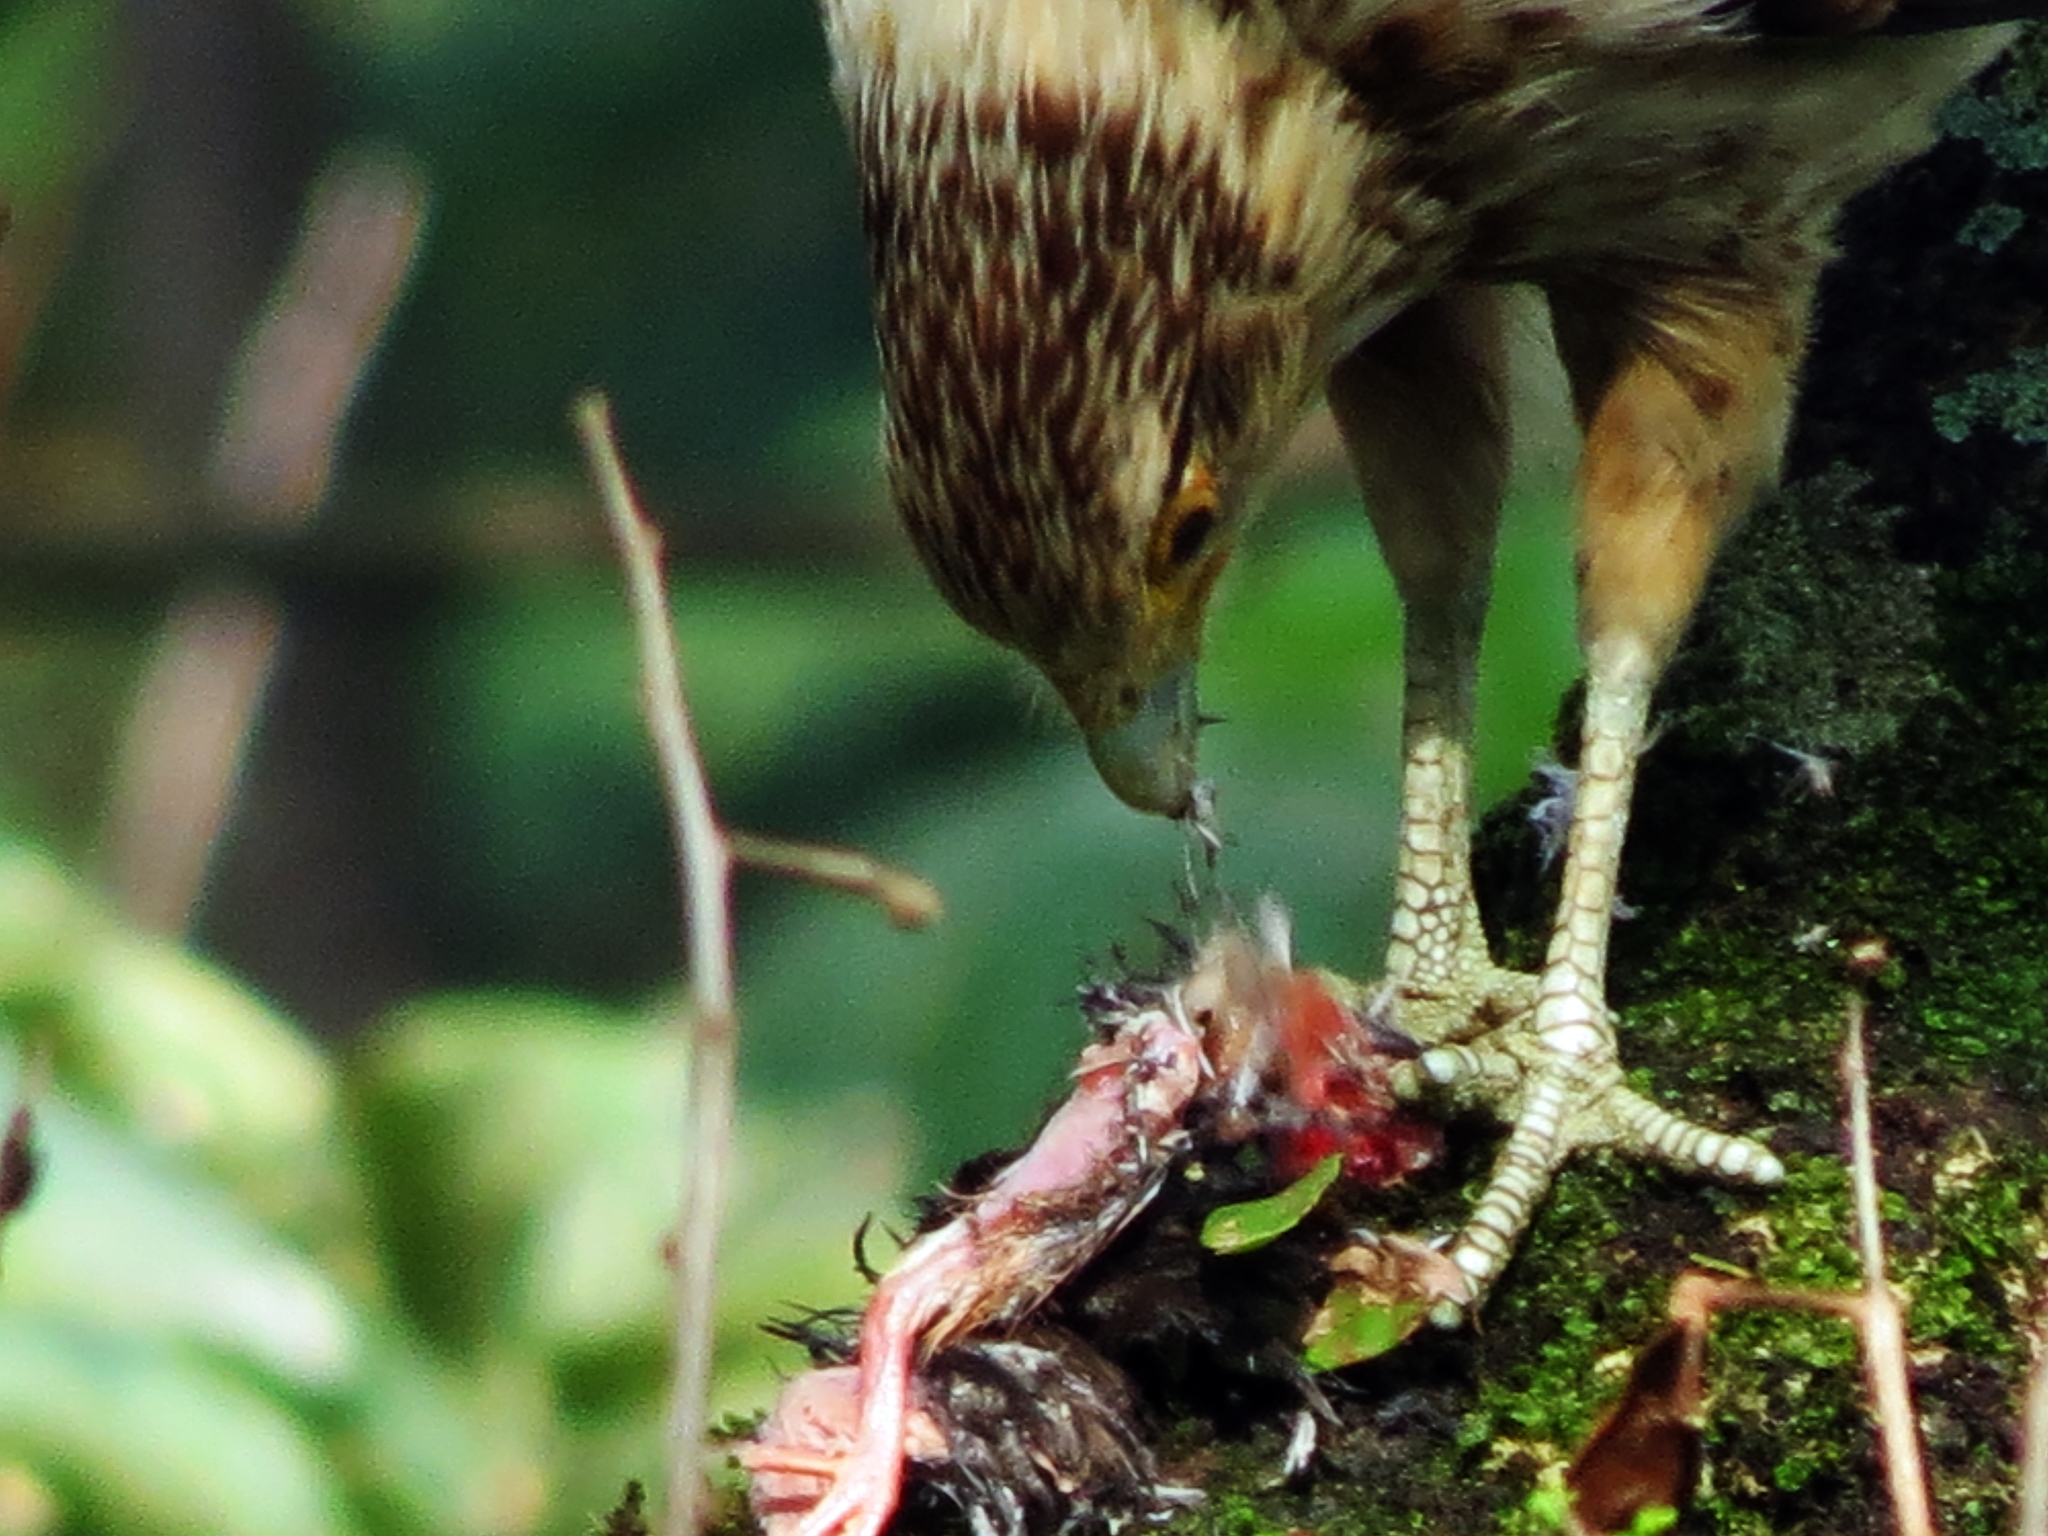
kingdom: Animalia
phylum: Chordata
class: Aves
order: Falconiformes
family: Falconidae
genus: Daptrius
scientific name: Daptrius
